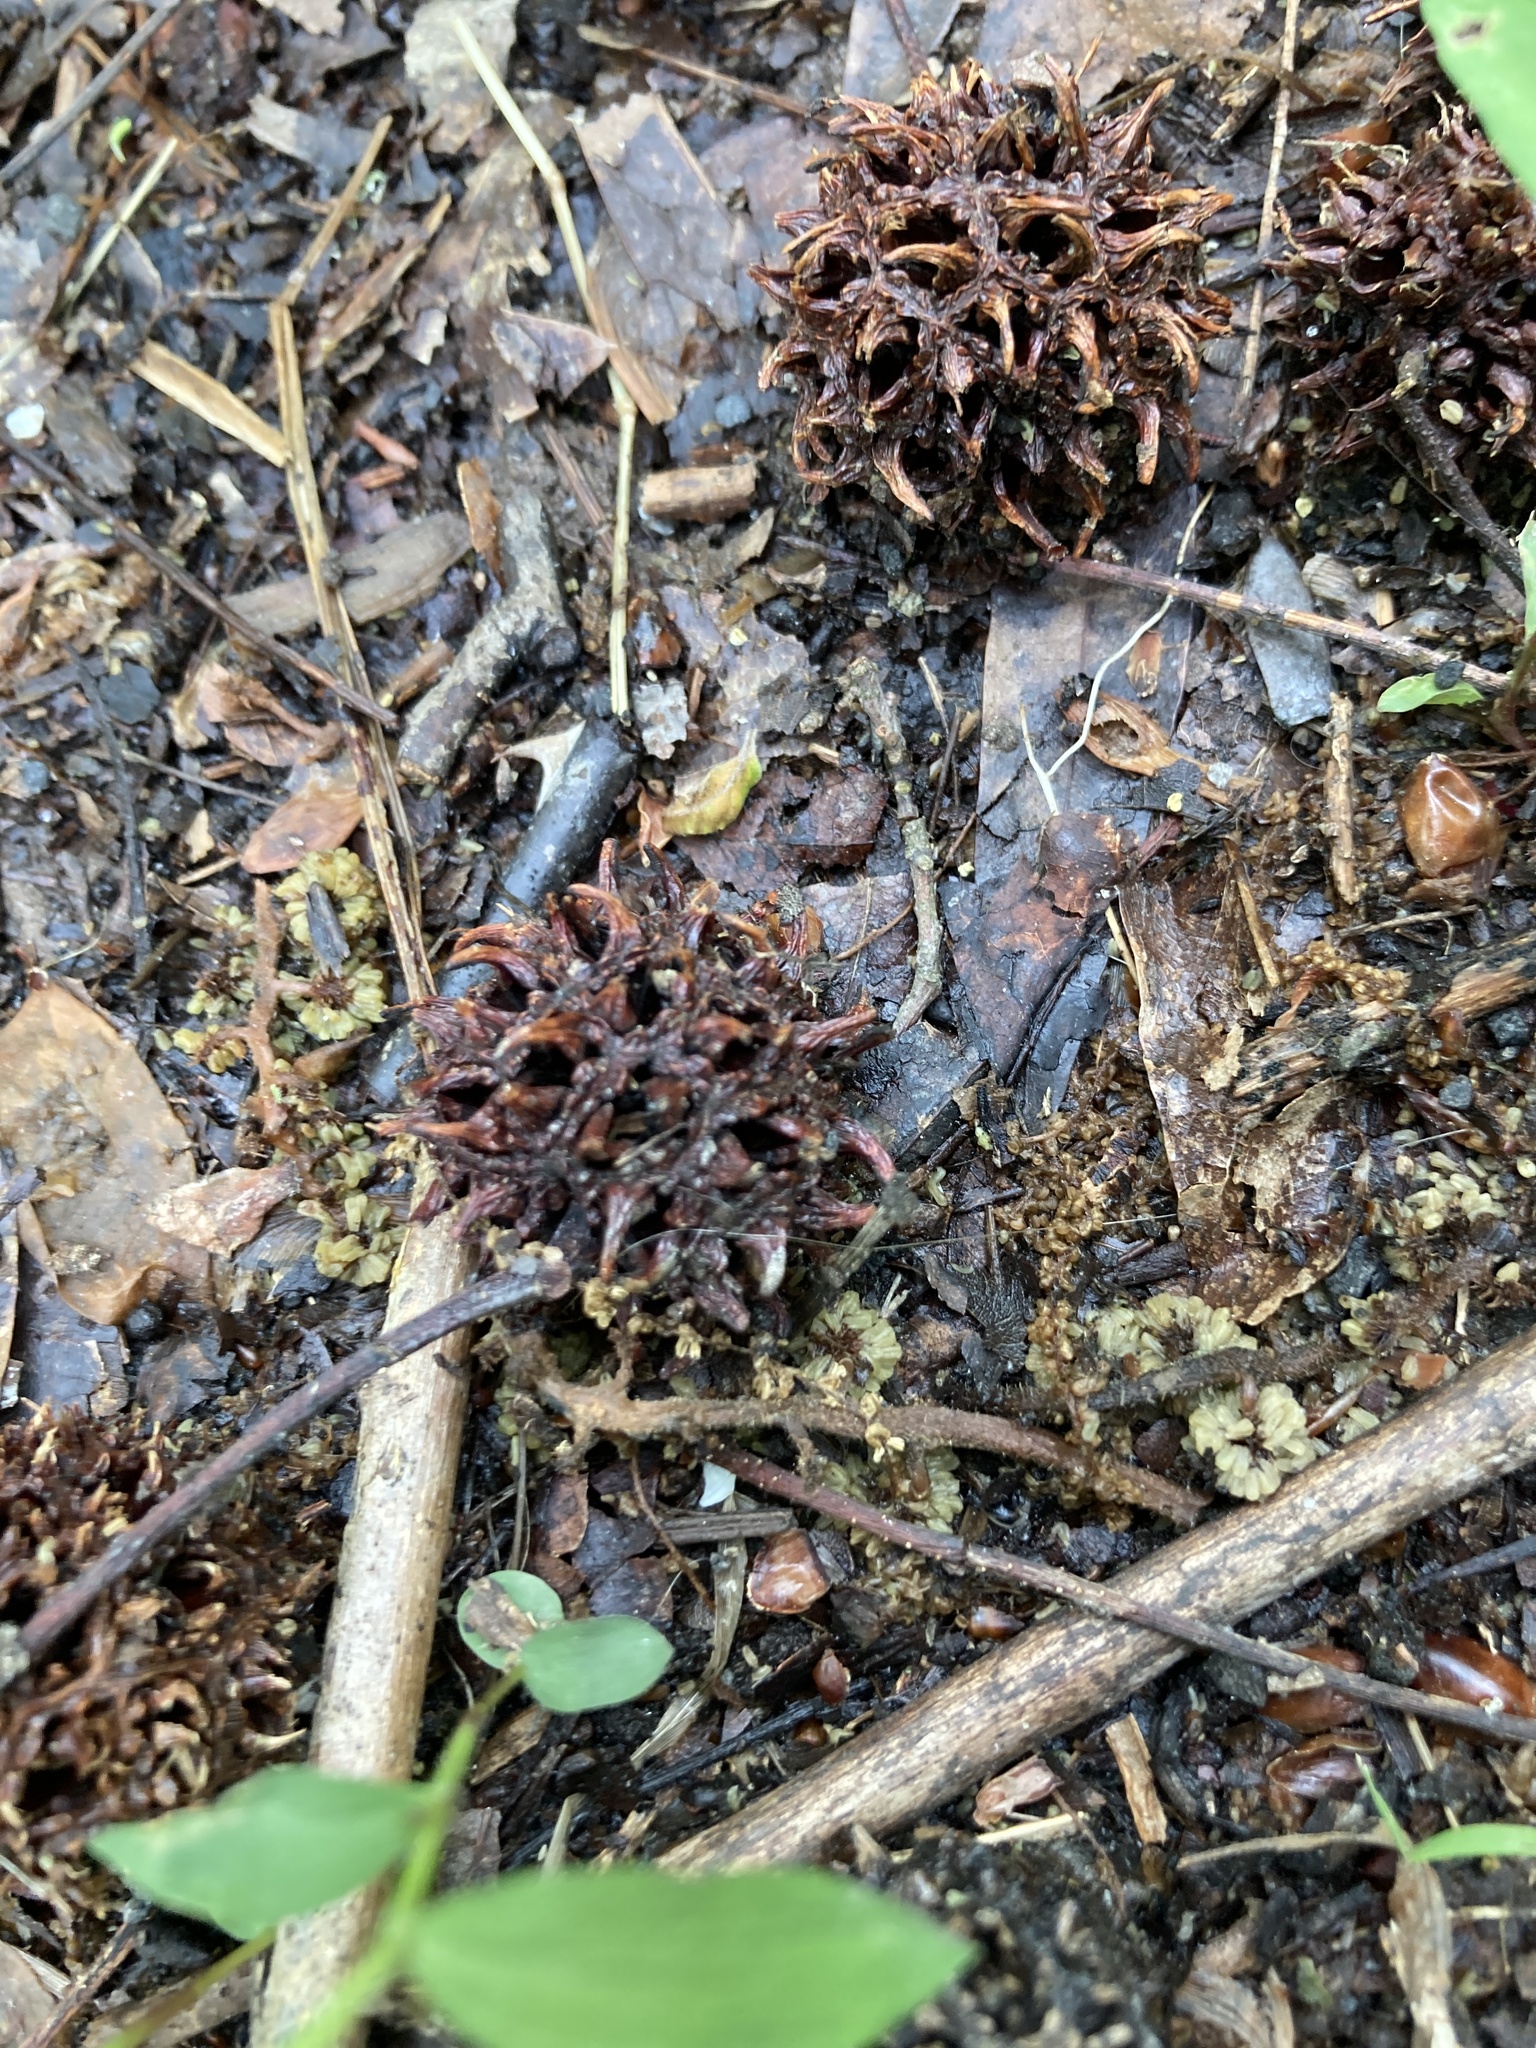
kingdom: Plantae
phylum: Tracheophyta
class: Magnoliopsida
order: Saxifragales
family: Altingiaceae
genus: Liquidambar
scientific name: Liquidambar styraciflua
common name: Sweet gum
